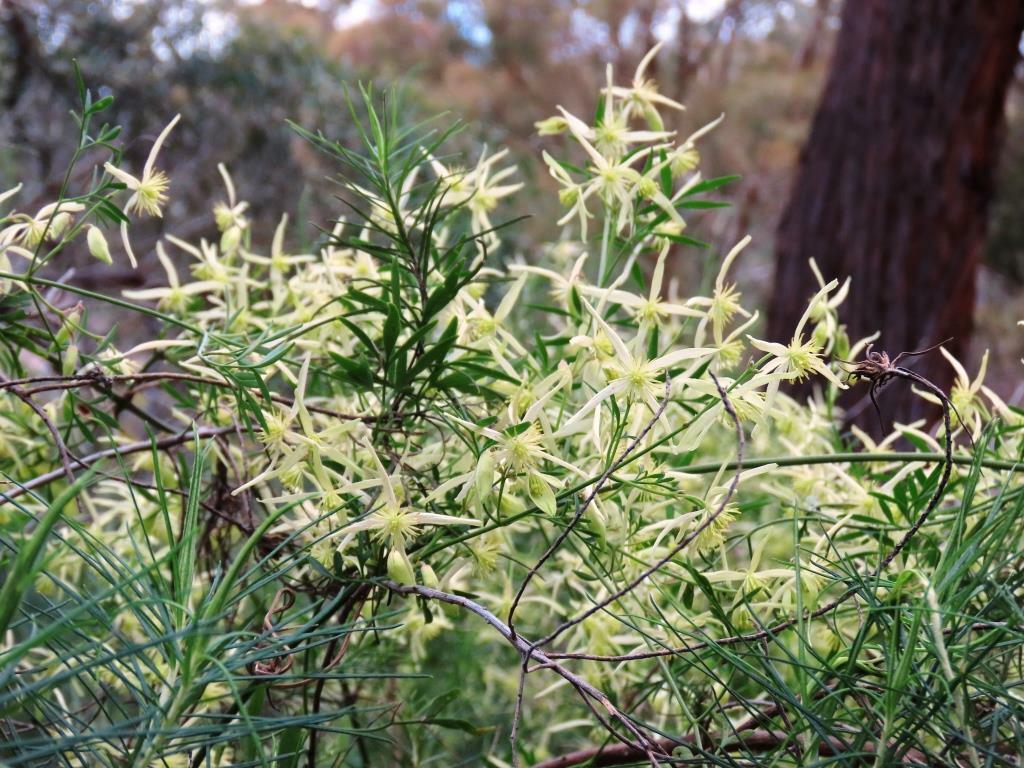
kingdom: Plantae
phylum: Tracheophyta
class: Magnoliopsida
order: Ranunculales
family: Ranunculaceae
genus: Clematis
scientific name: Clematis microphylla
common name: Headachevine
